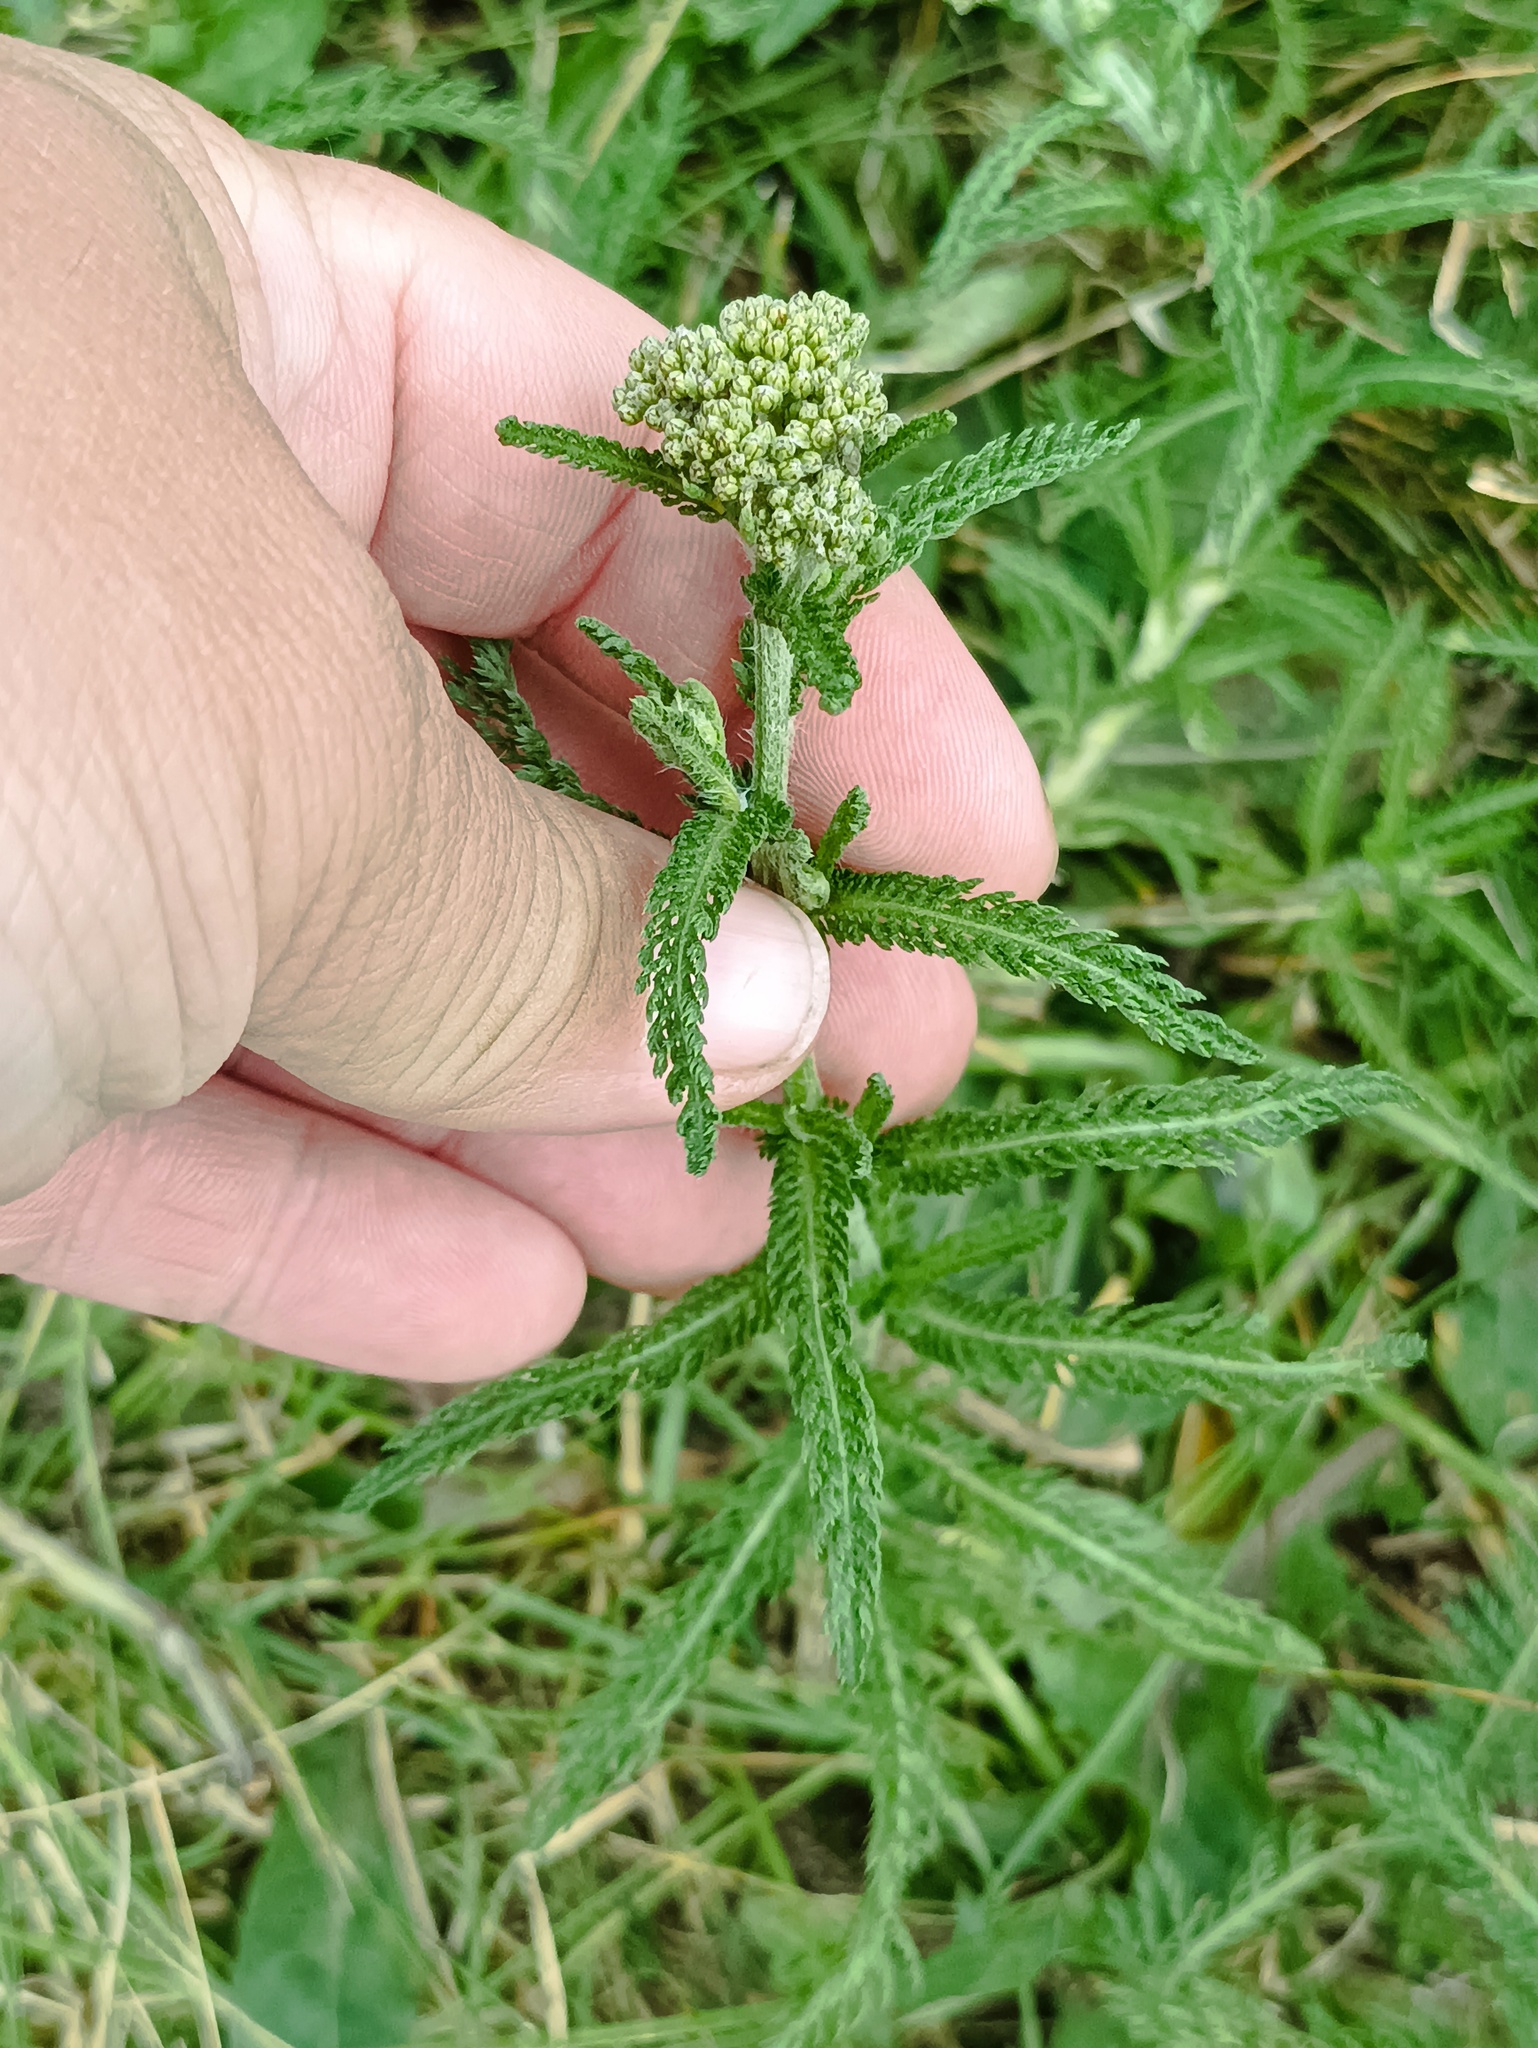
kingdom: Plantae
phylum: Tracheophyta
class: Magnoliopsida
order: Asterales
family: Asteraceae
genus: Achillea
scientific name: Achillea millefolium
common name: Yarrow
